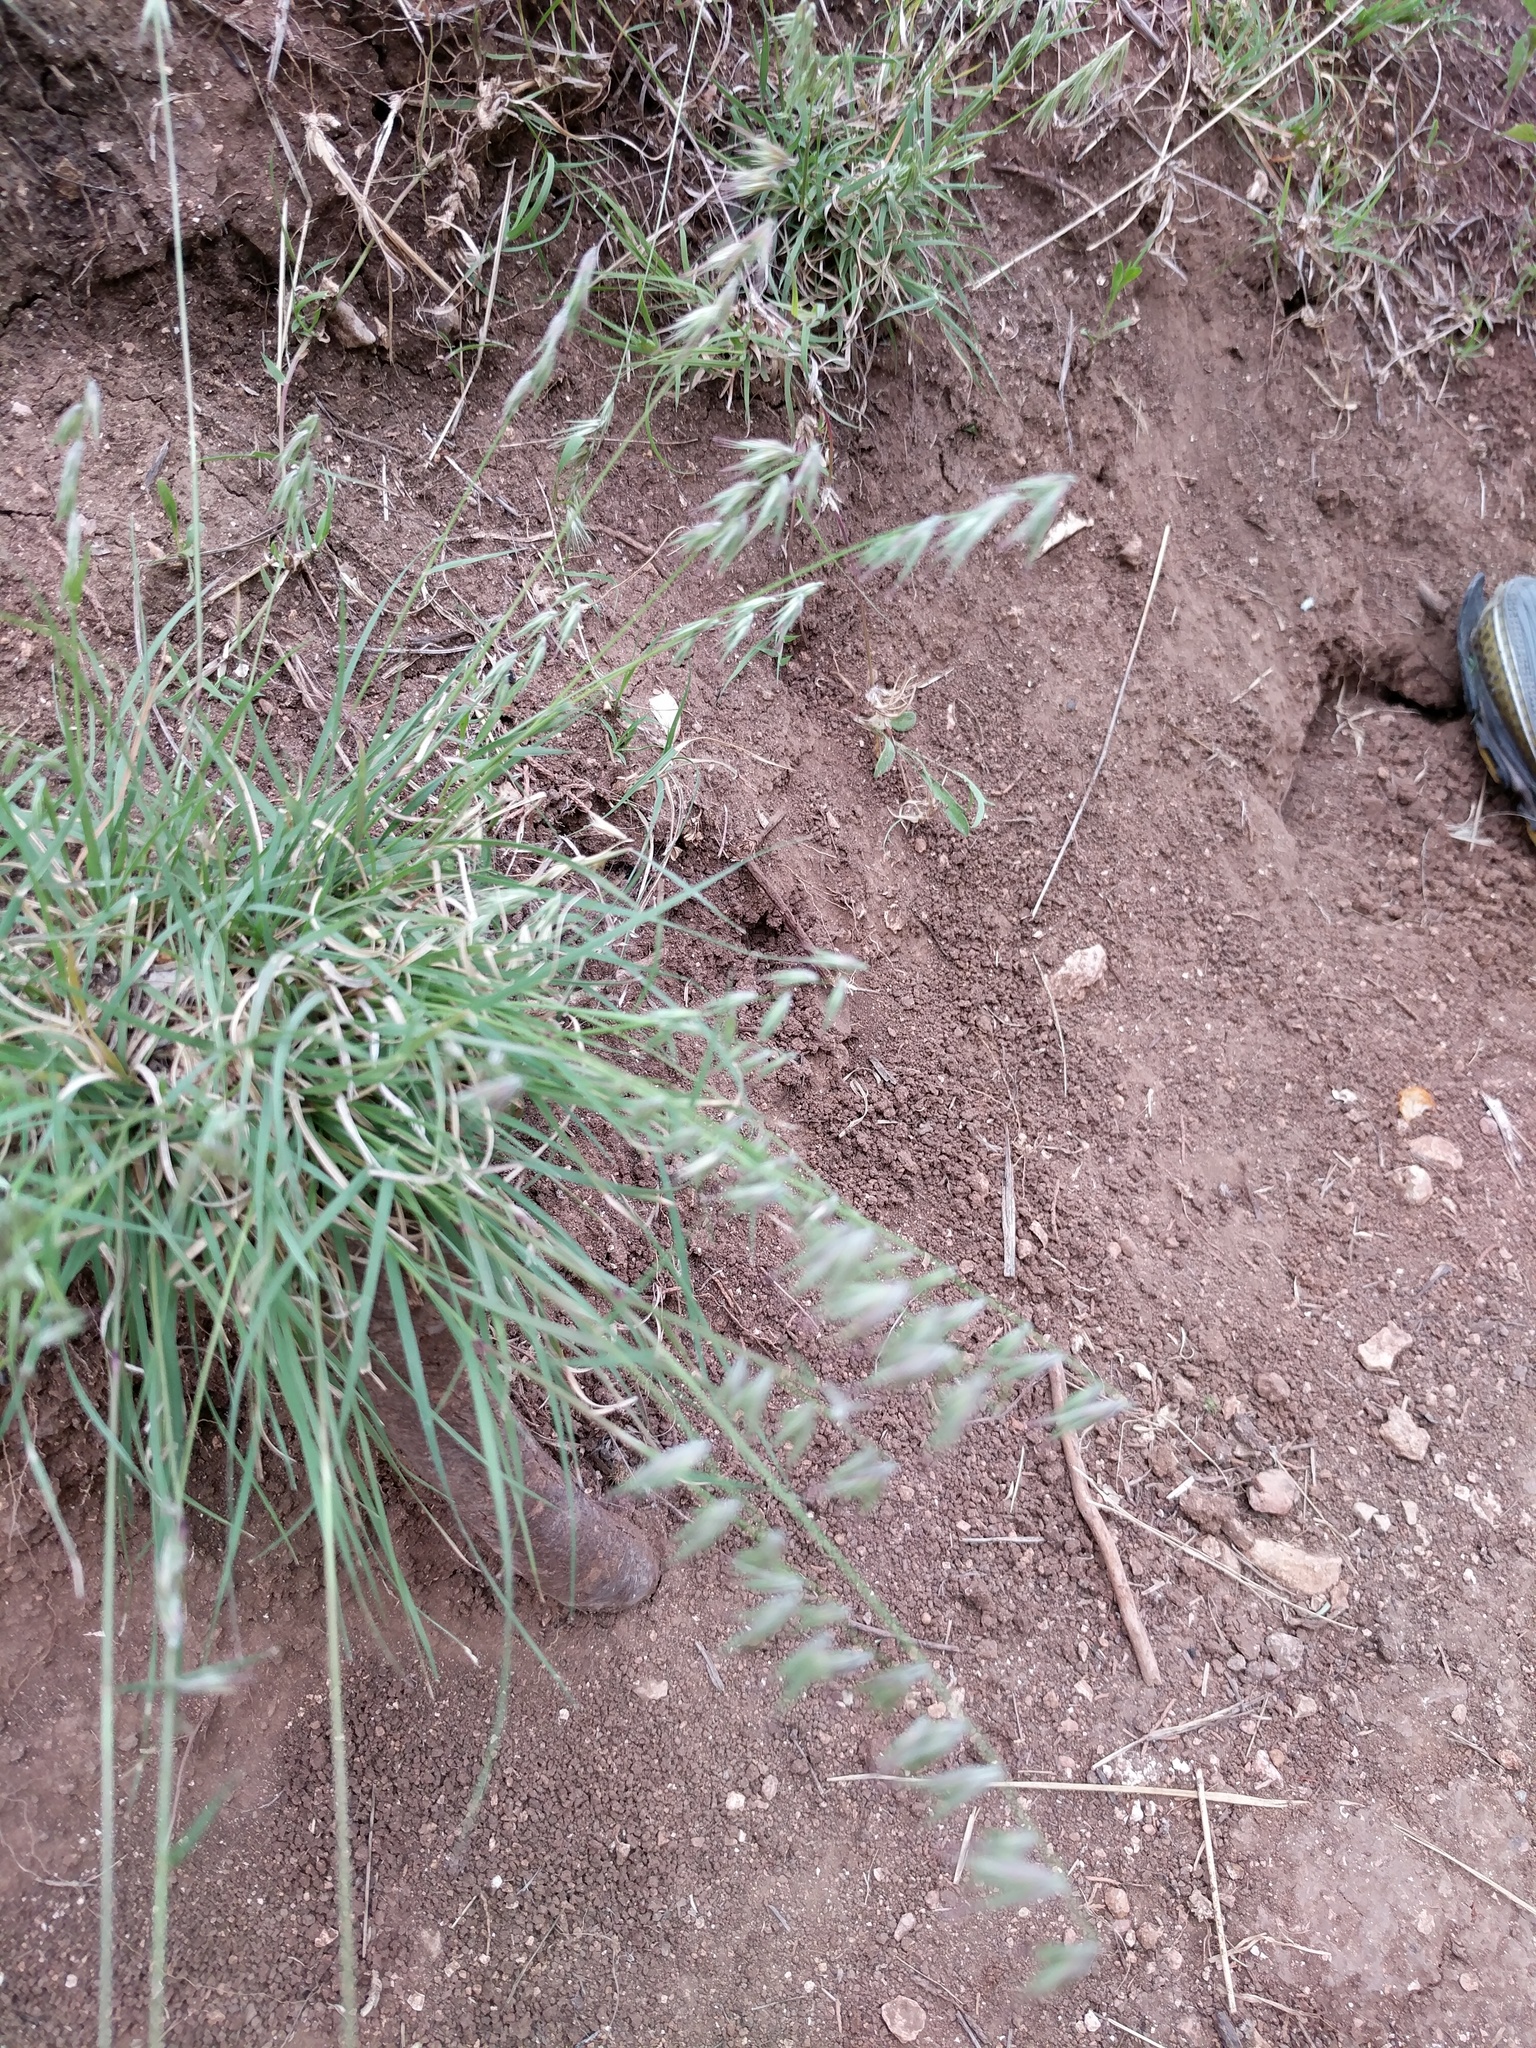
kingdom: Plantae
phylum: Tracheophyta
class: Liliopsida
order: Poales
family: Poaceae
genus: Bouteloua
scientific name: Bouteloua rigidiseta
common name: Texas grama
